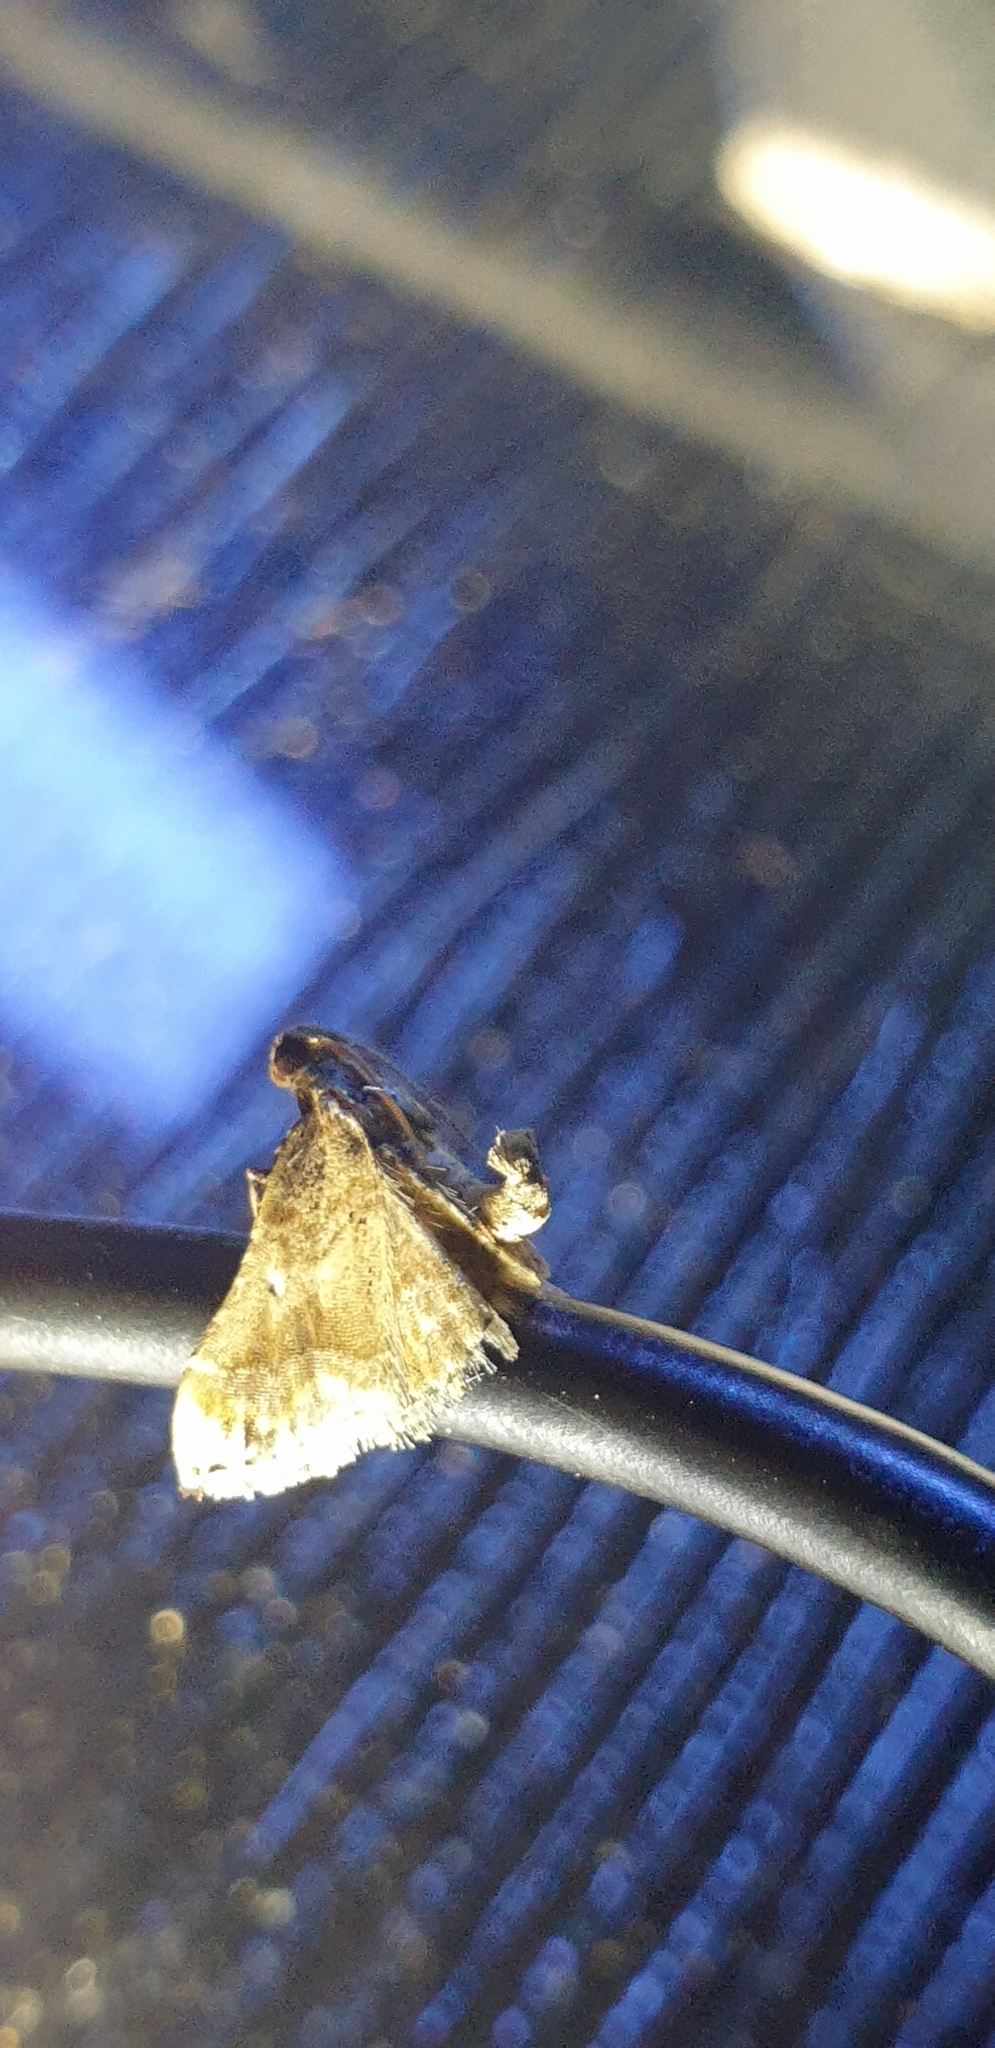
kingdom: Animalia
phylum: Arthropoda
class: Insecta
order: Lepidoptera
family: Pyralidae
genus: Scenedra
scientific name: Scenedra decoratalis
